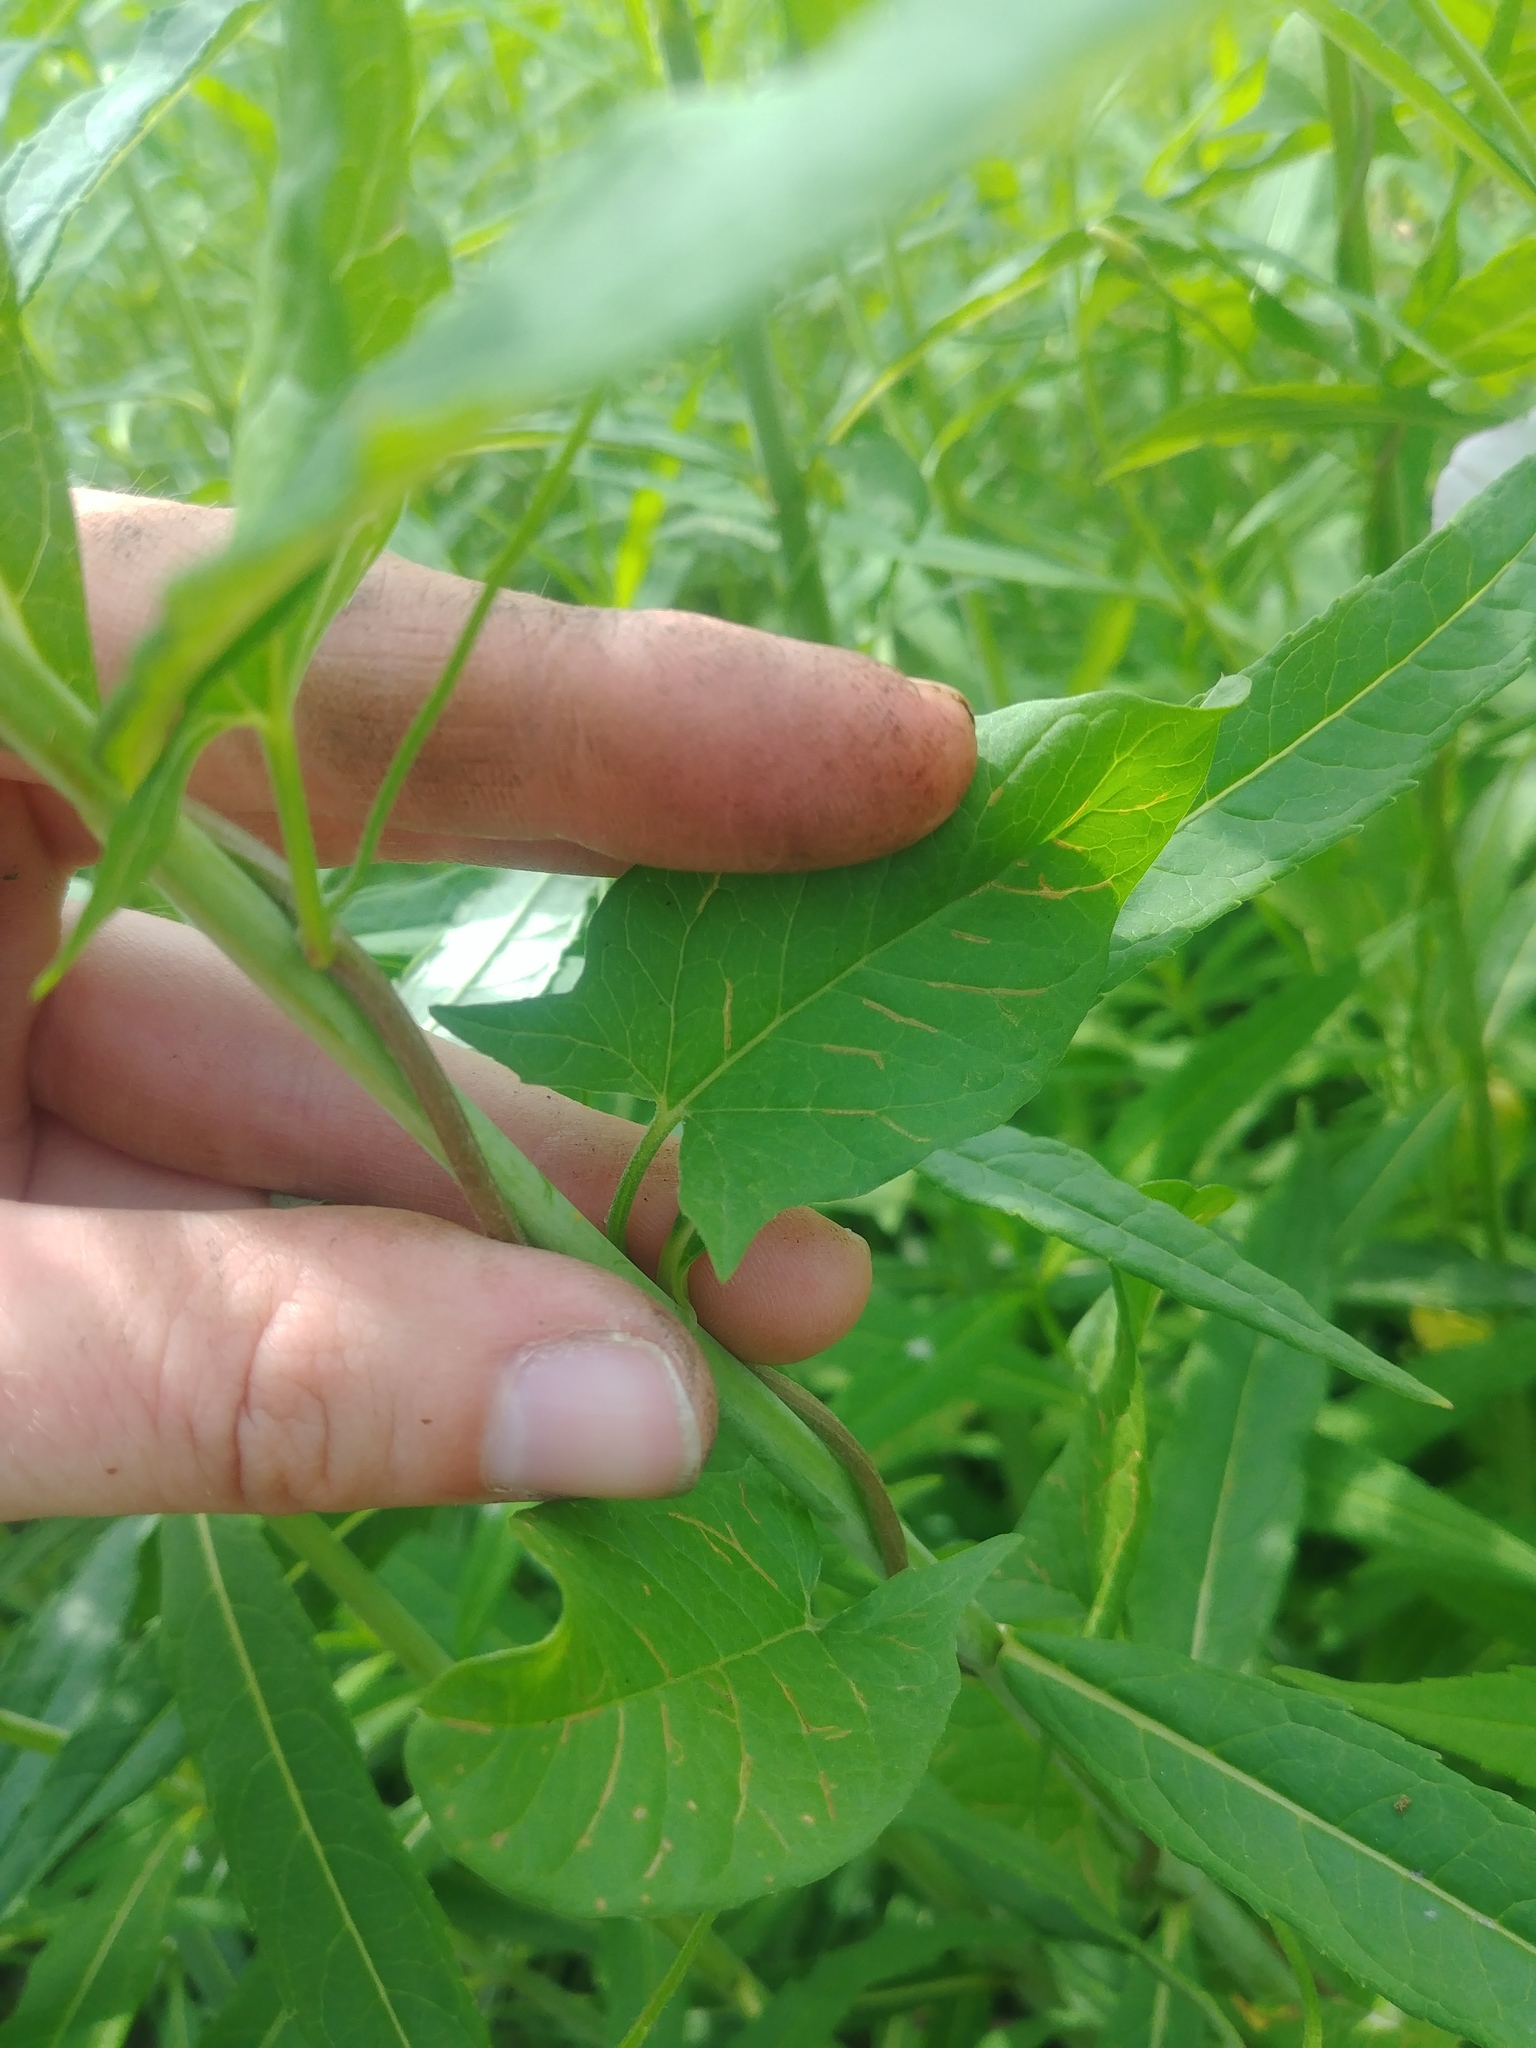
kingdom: Plantae
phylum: Tracheophyta
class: Magnoliopsida
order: Solanales
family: Convolvulaceae
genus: Convolvulus
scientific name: Convolvulus arvensis
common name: Field bindweed
